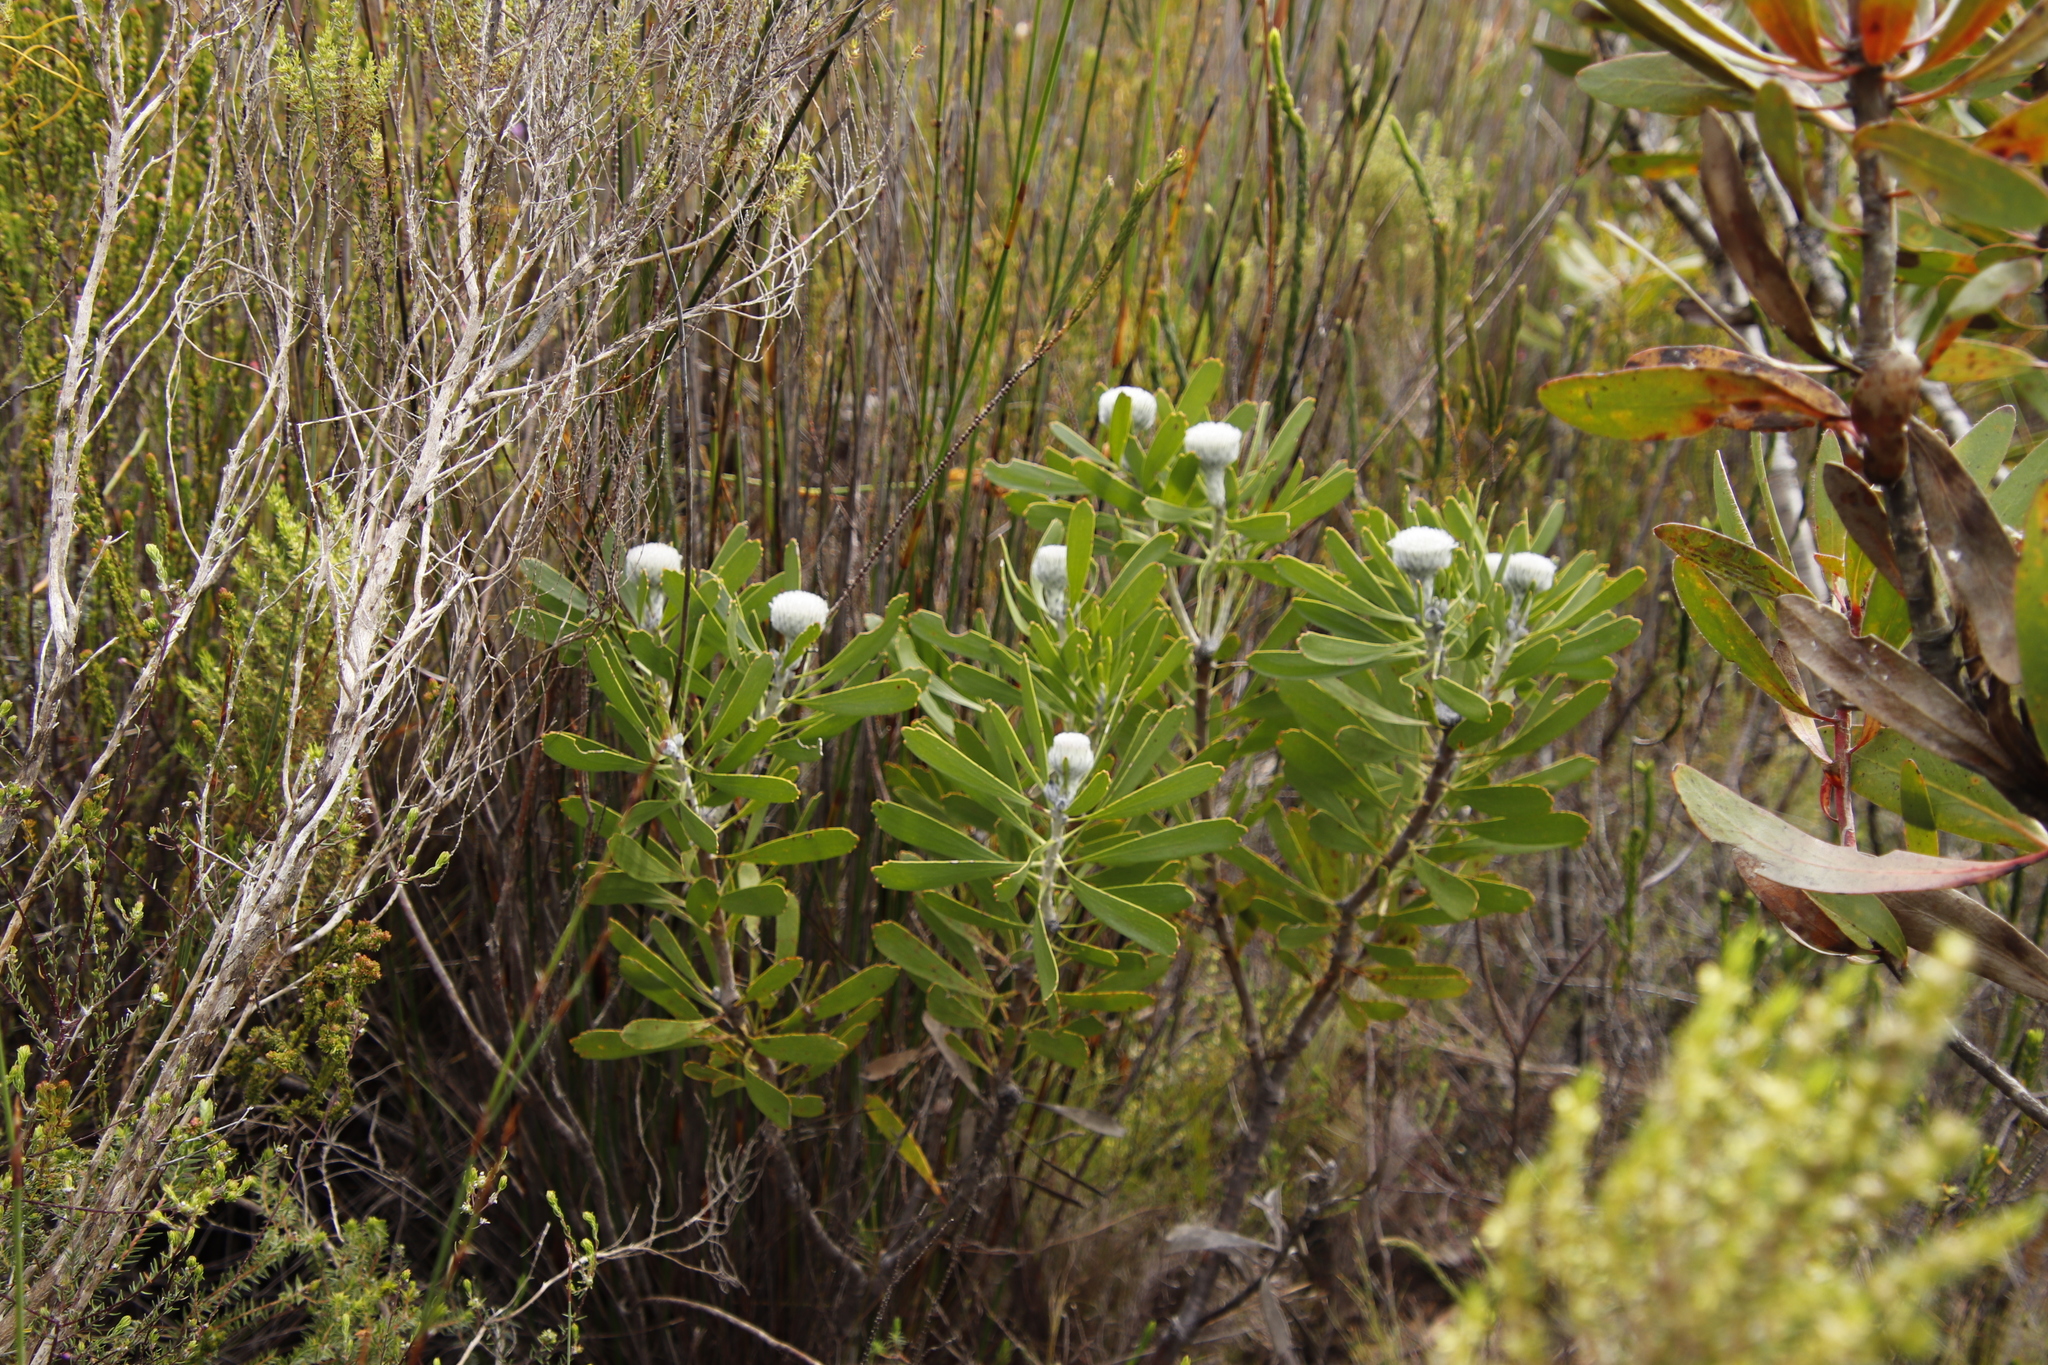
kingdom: Plantae
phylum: Tracheophyta
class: Magnoliopsida
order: Proteales
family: Proteaceae
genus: Leucospermum
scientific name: Leucospermum truncatum
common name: Limestone pincushion
